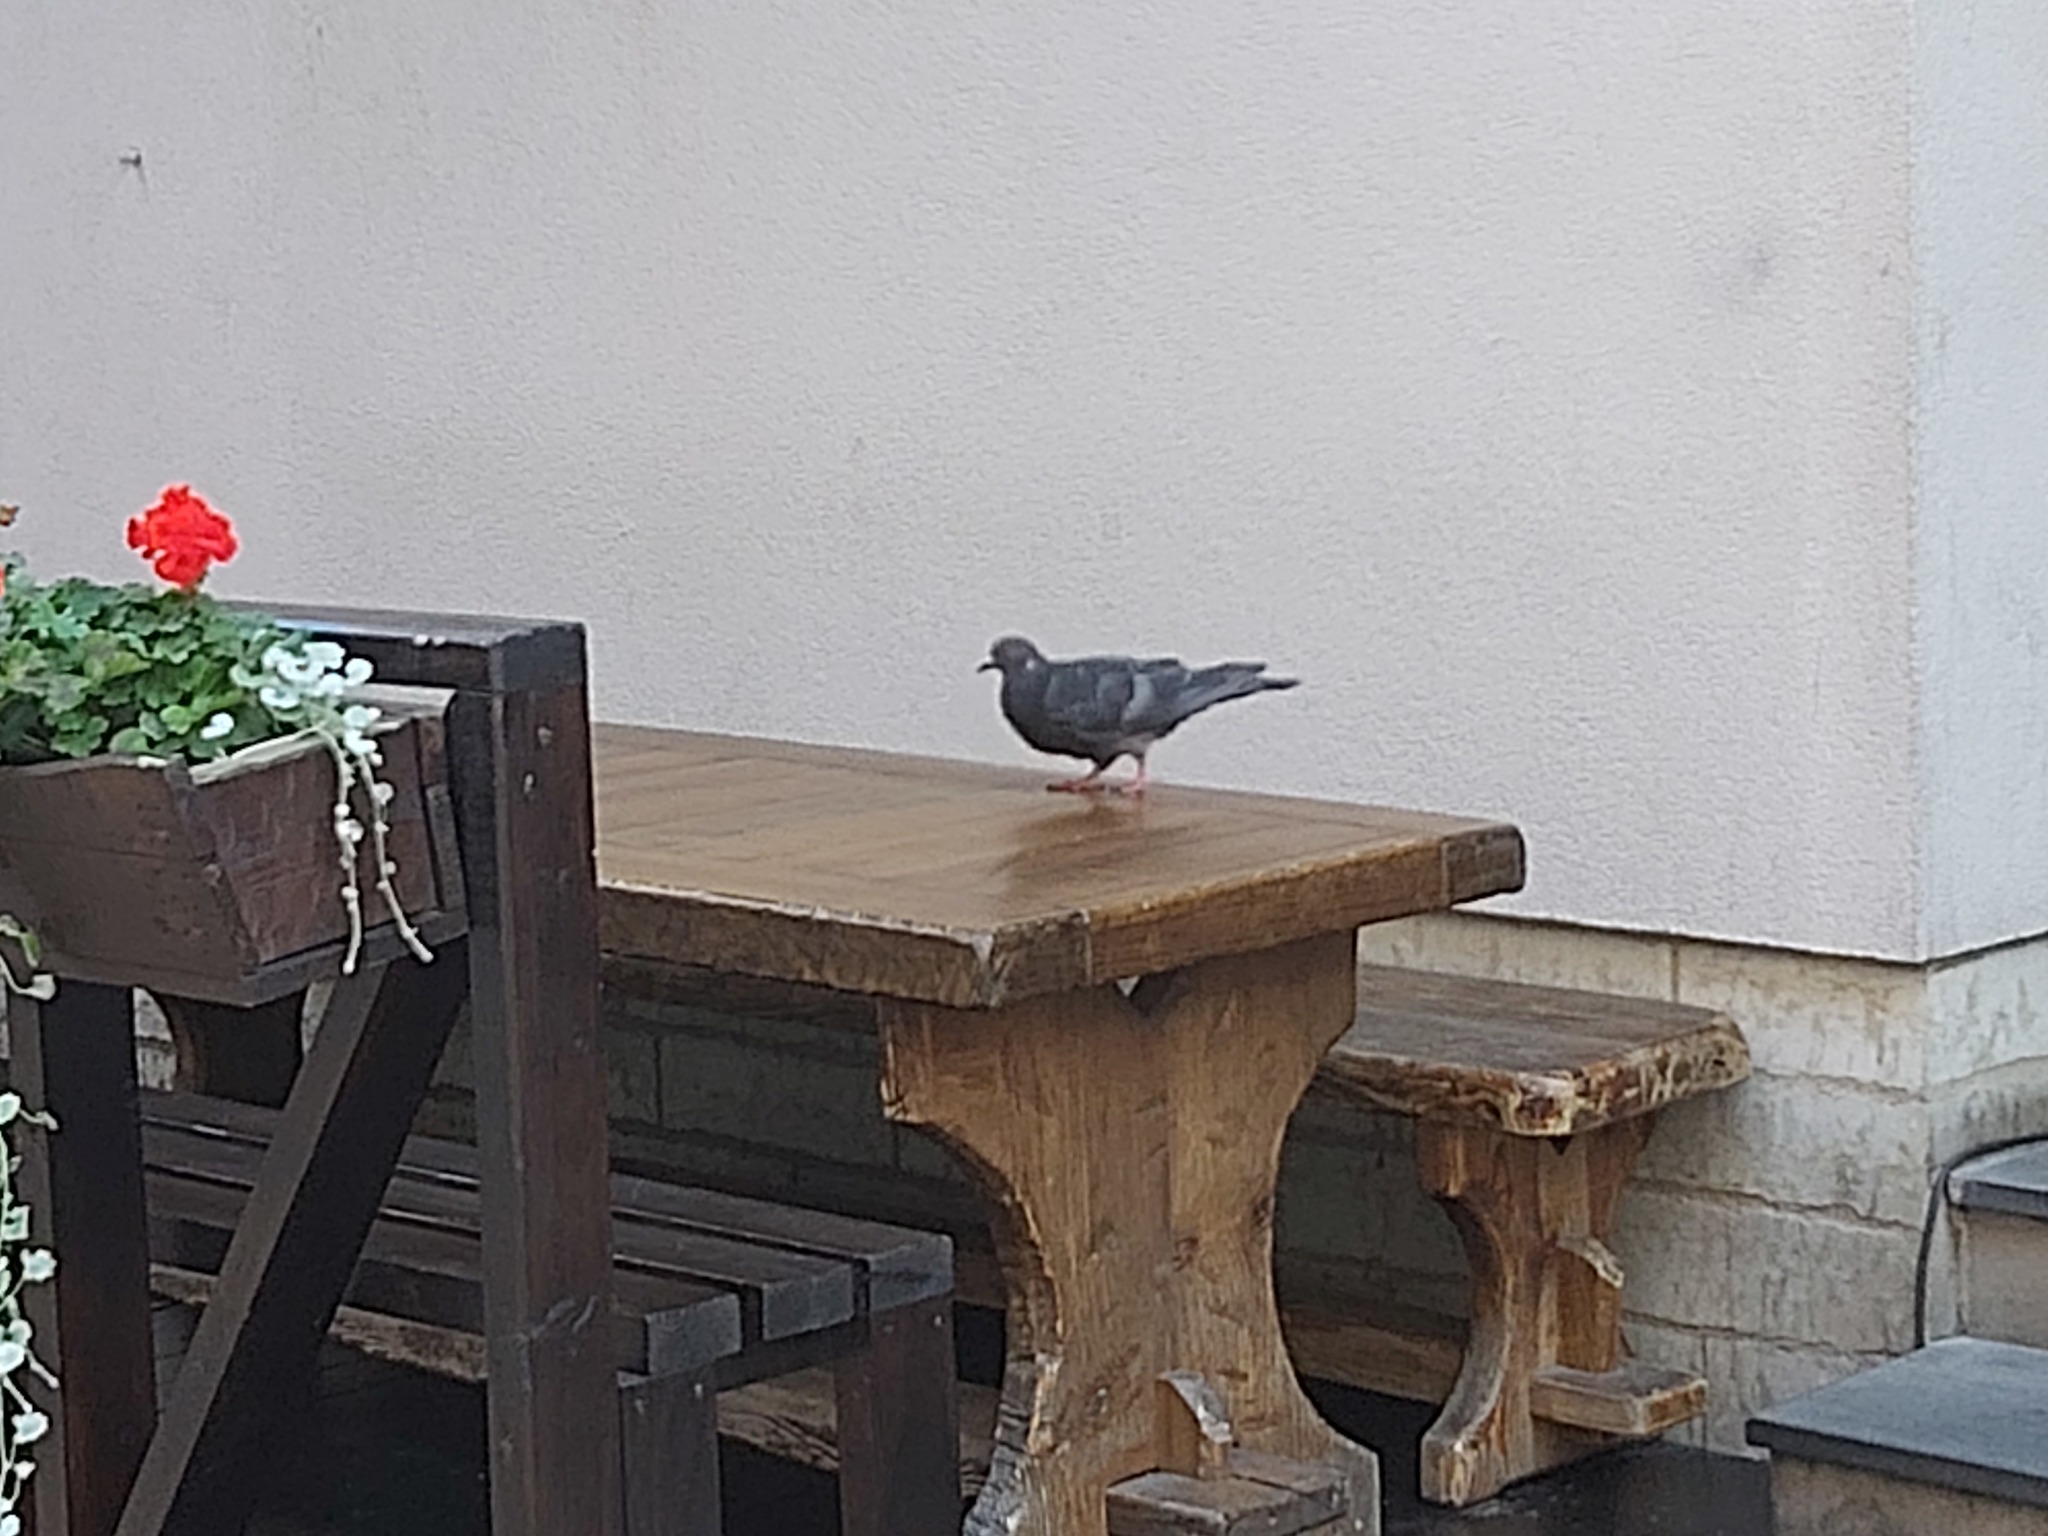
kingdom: Animalia
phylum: Chordata
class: Aves
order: Columbiformes
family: Columbidae
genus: Columba
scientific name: Columba livia
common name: Rock pigeon
